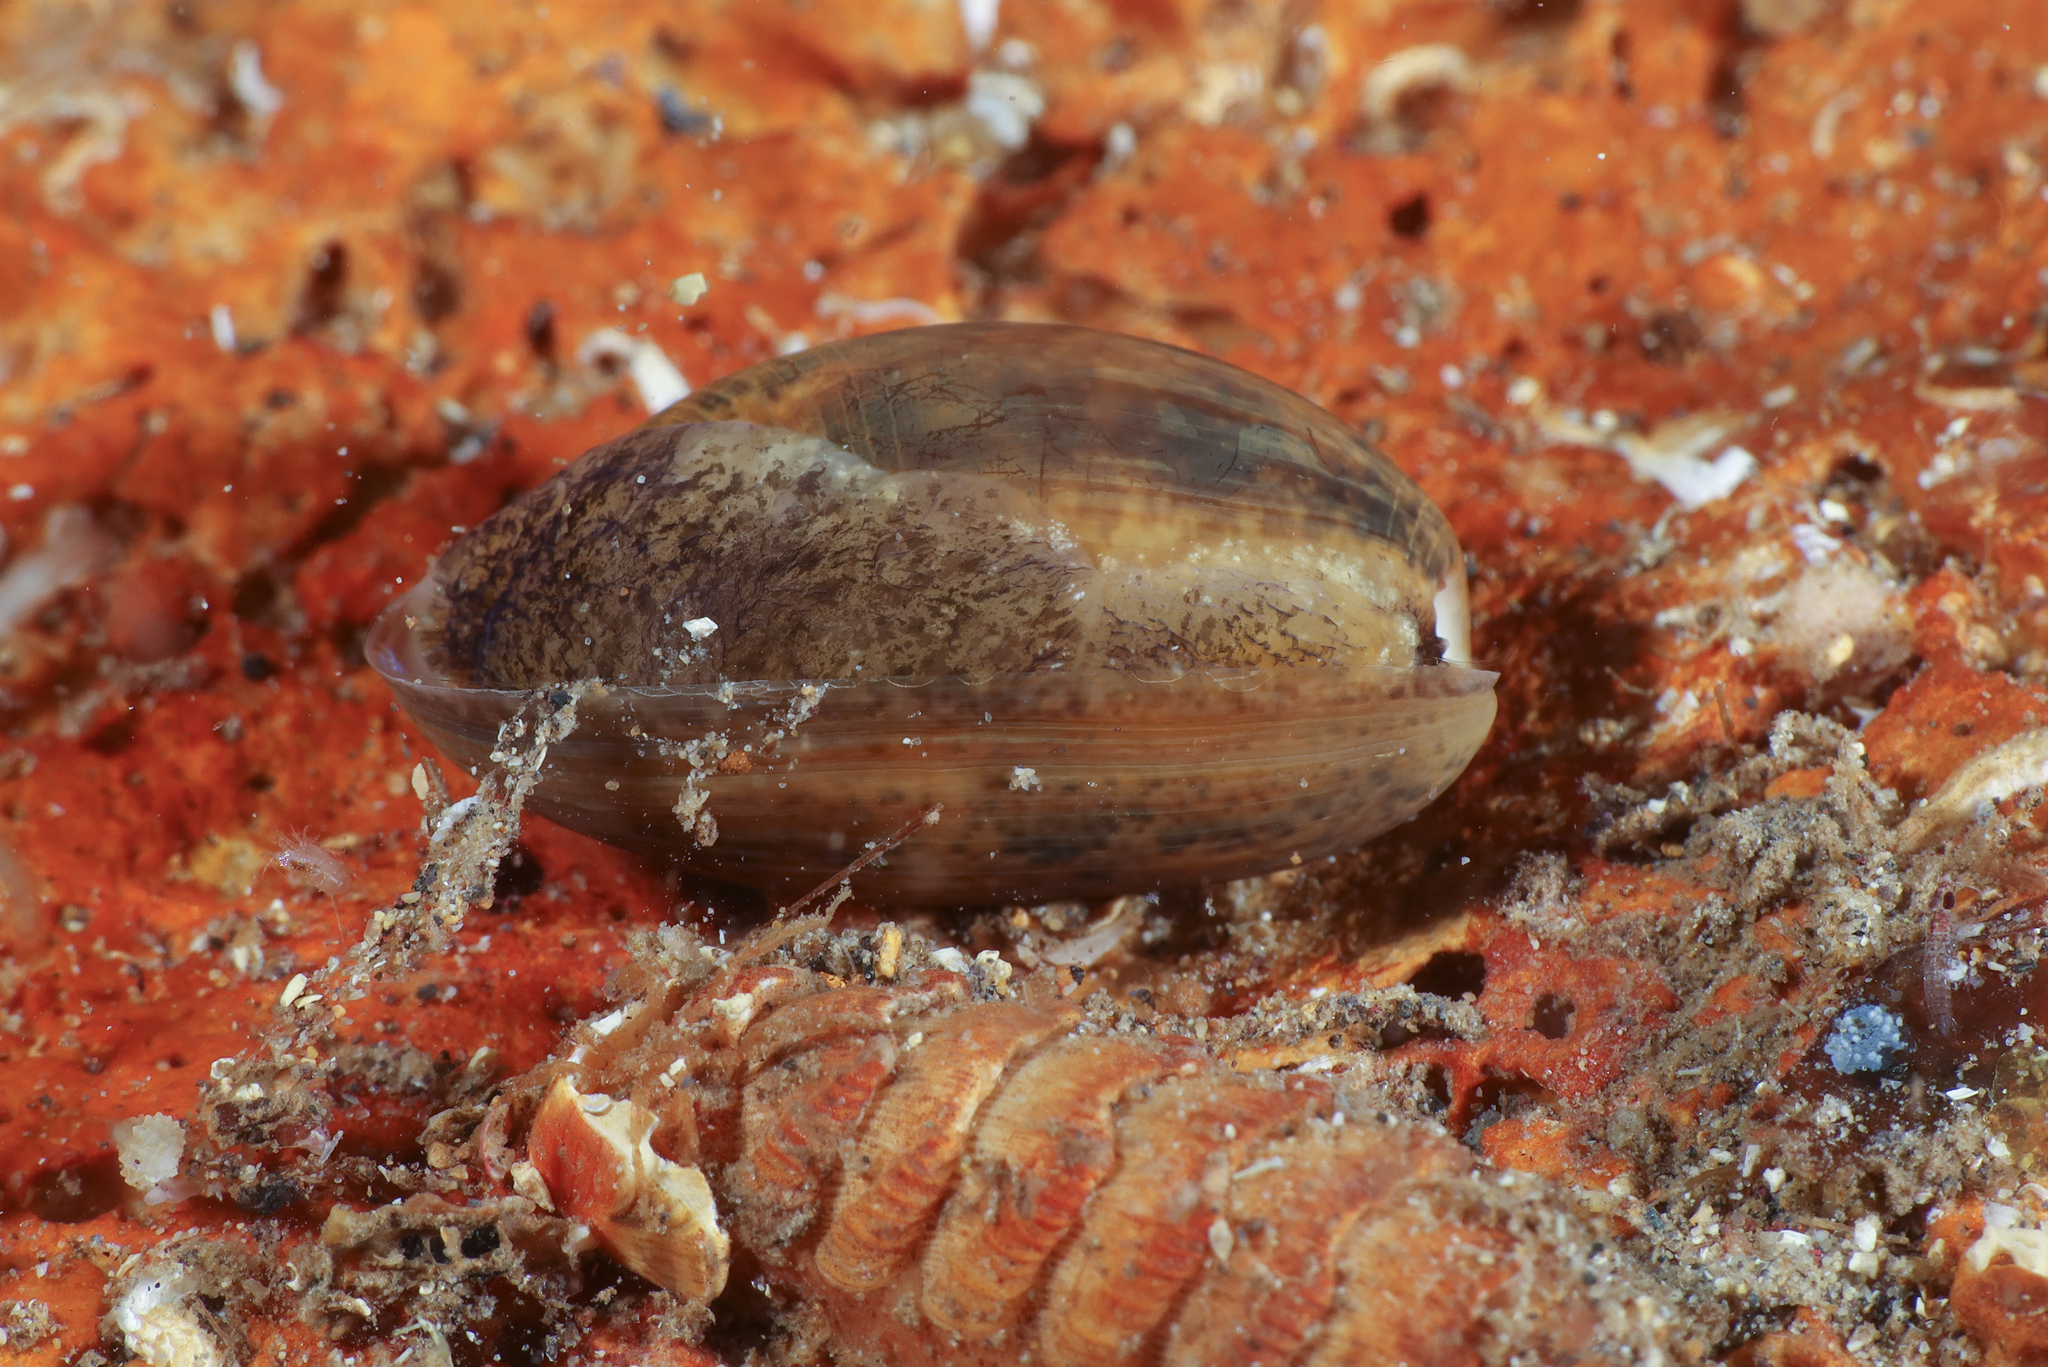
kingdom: Animalia
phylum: Mollusca
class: Gastropoda
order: Cephalaspidea
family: Bullidae
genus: Bulla
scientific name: Bulla striata
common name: Common atlantic bubble
